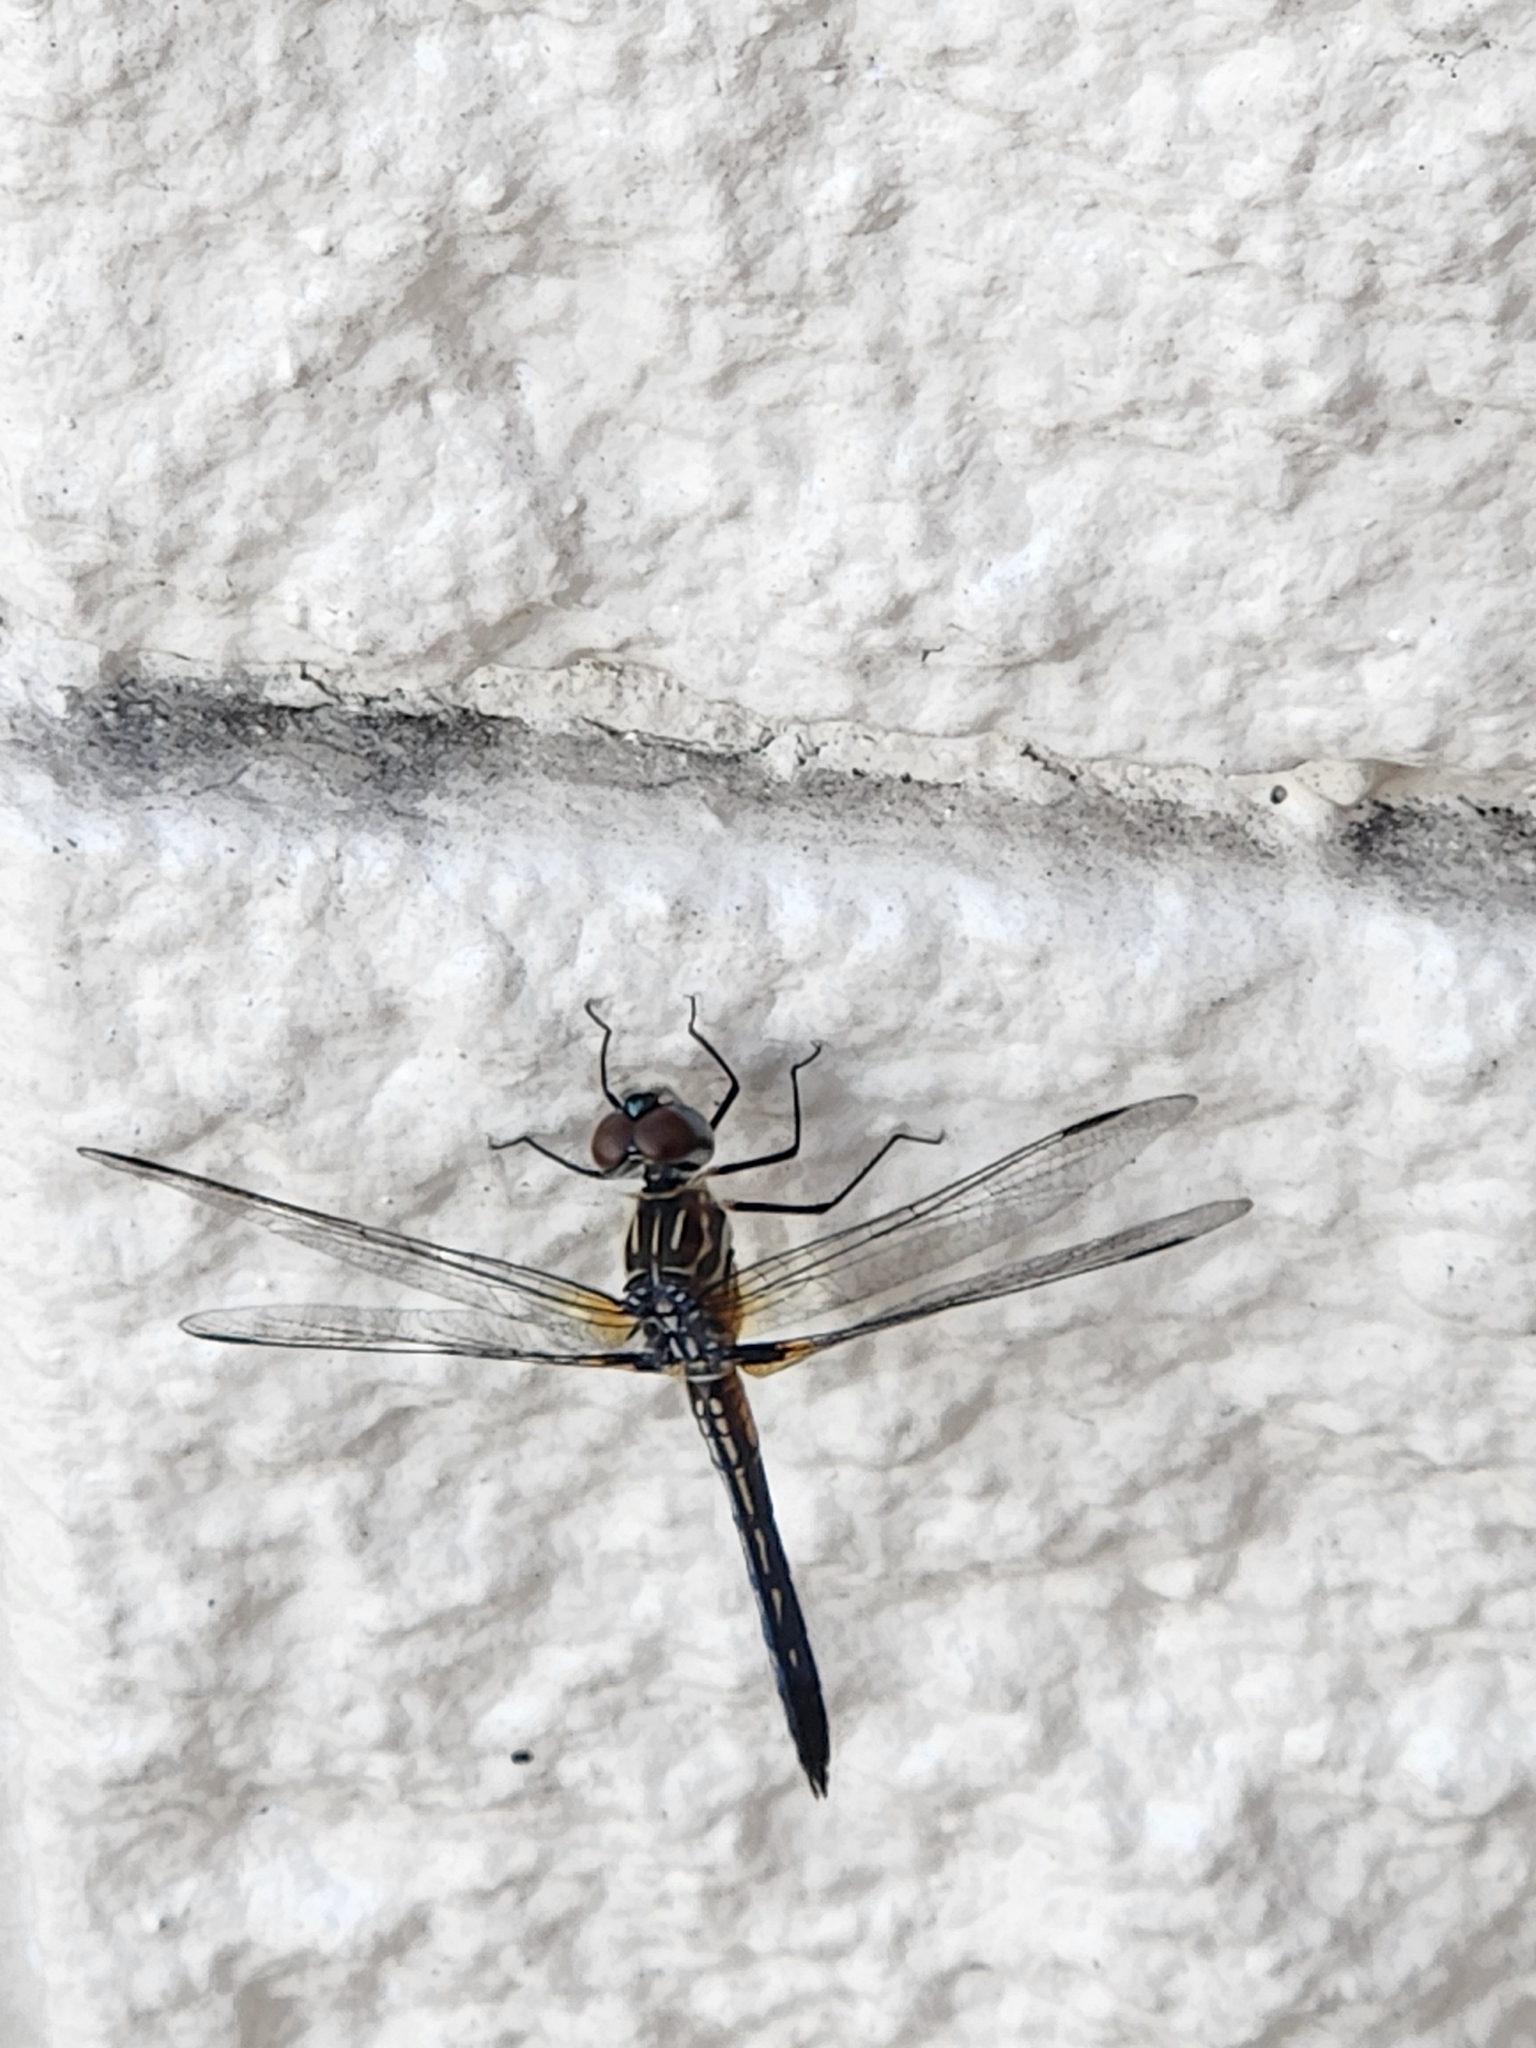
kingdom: Animalia
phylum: Arthropoda
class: Insecta
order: Odonata
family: Libellulidae
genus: Pachydiplax
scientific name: Pachydiplax longipennis
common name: Blue dasher
